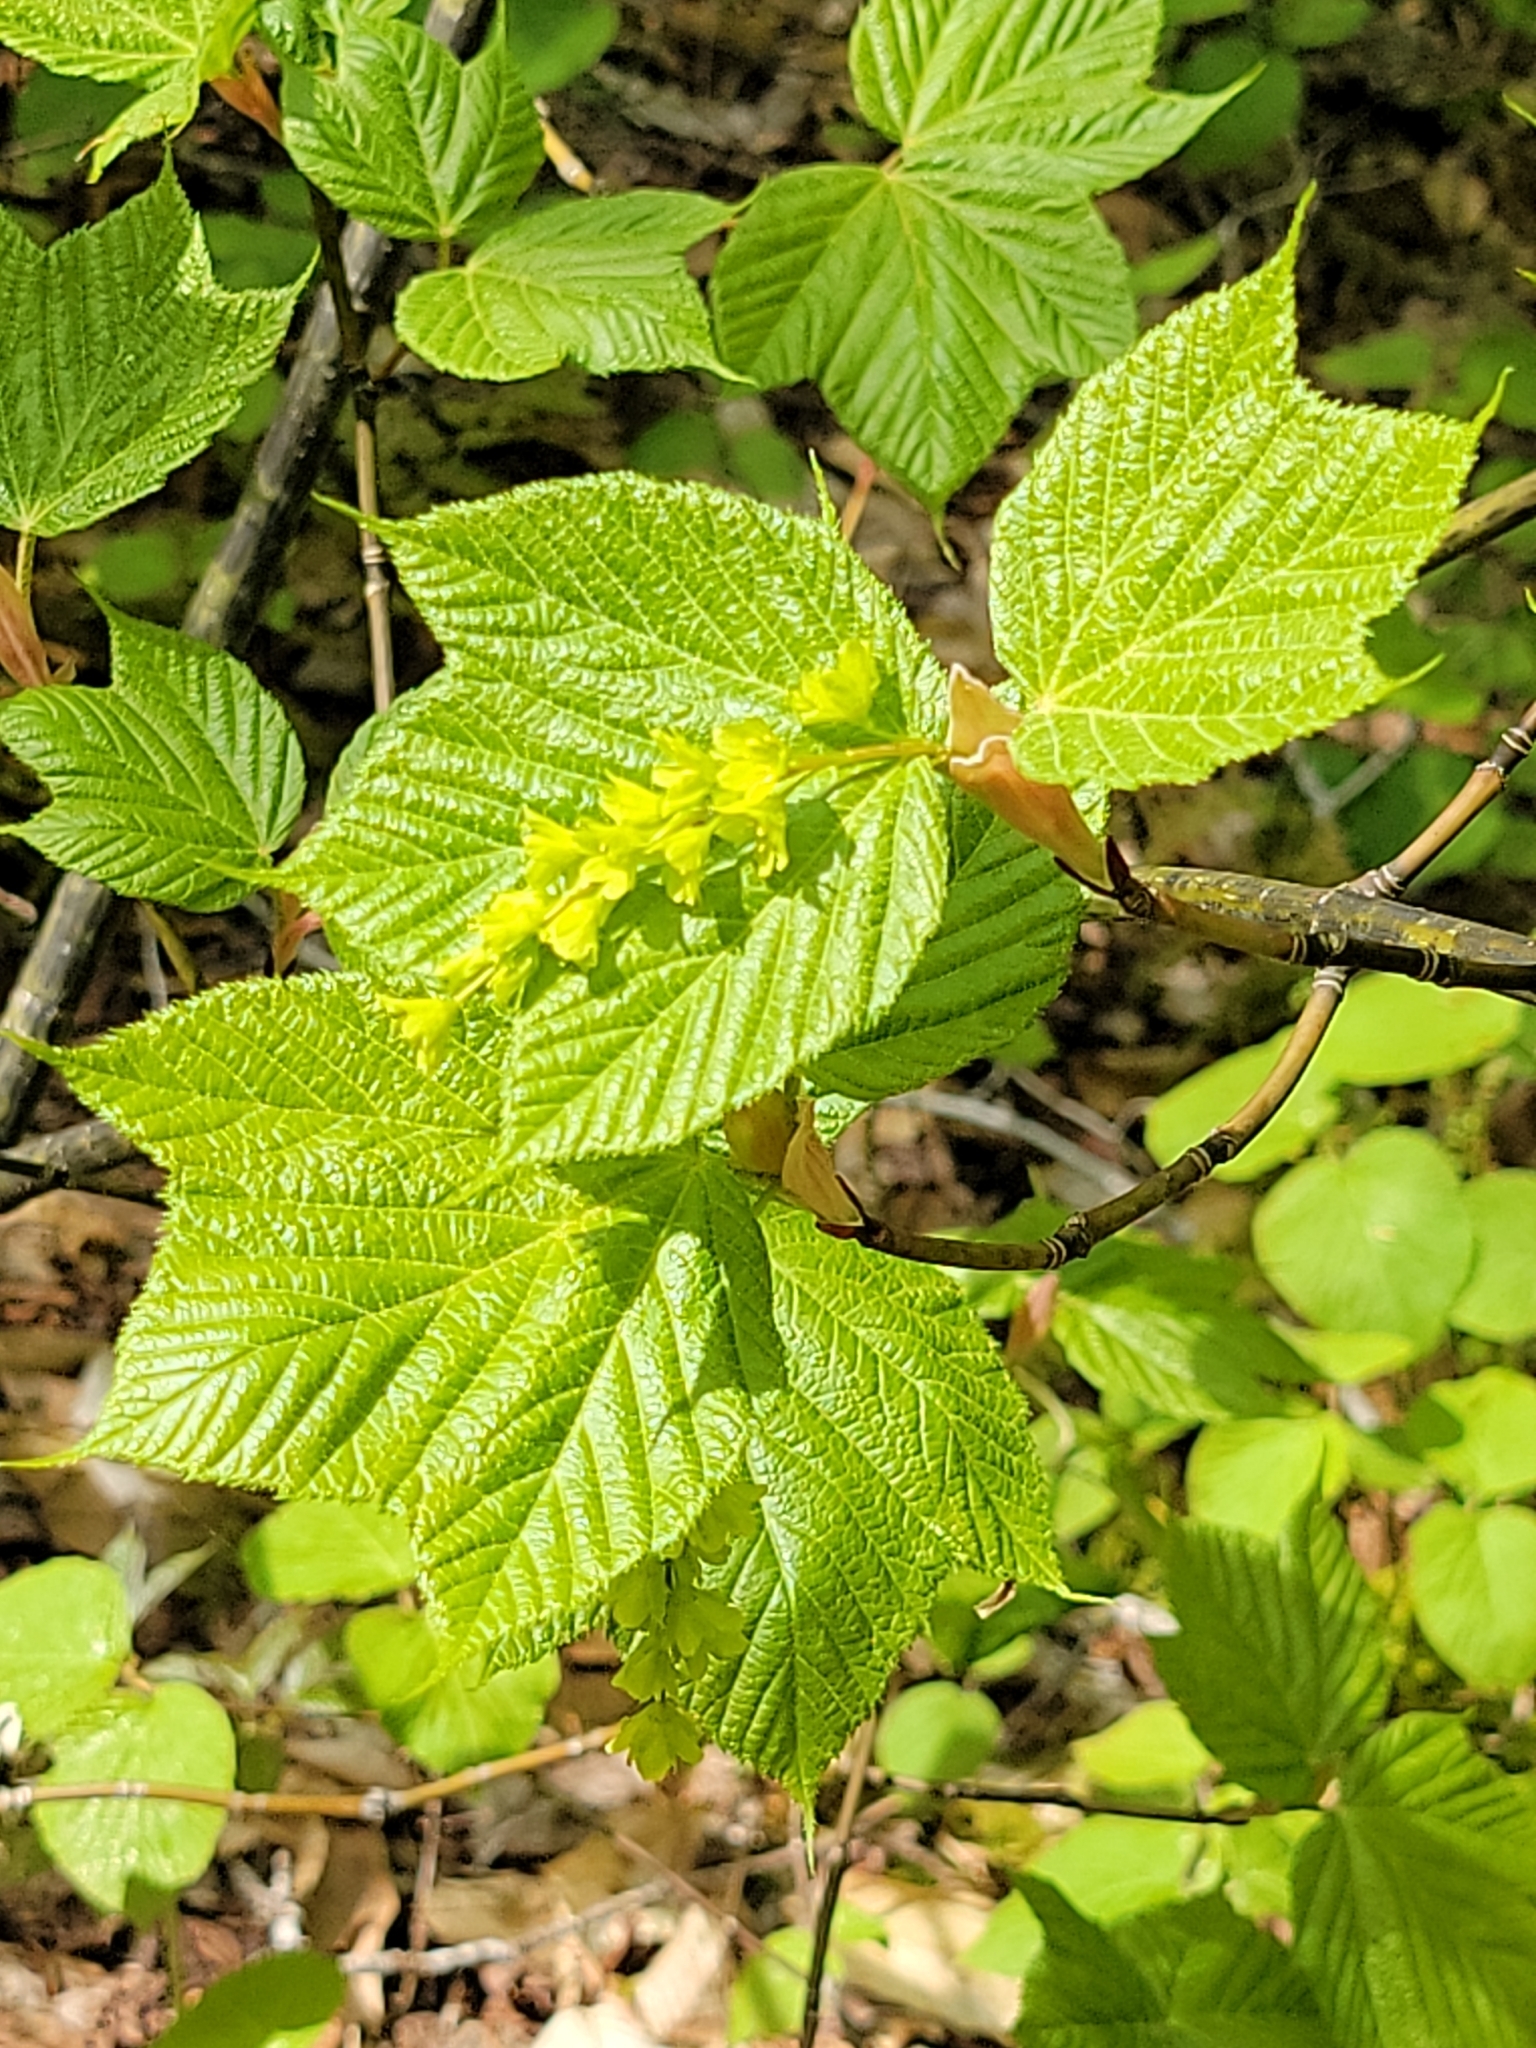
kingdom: Plantae
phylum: Tracheophyta
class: Magnoliopsida
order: Sapindales
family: Sapindaceae
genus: Acer
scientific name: Acer pensylvanicum
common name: Moosewood
